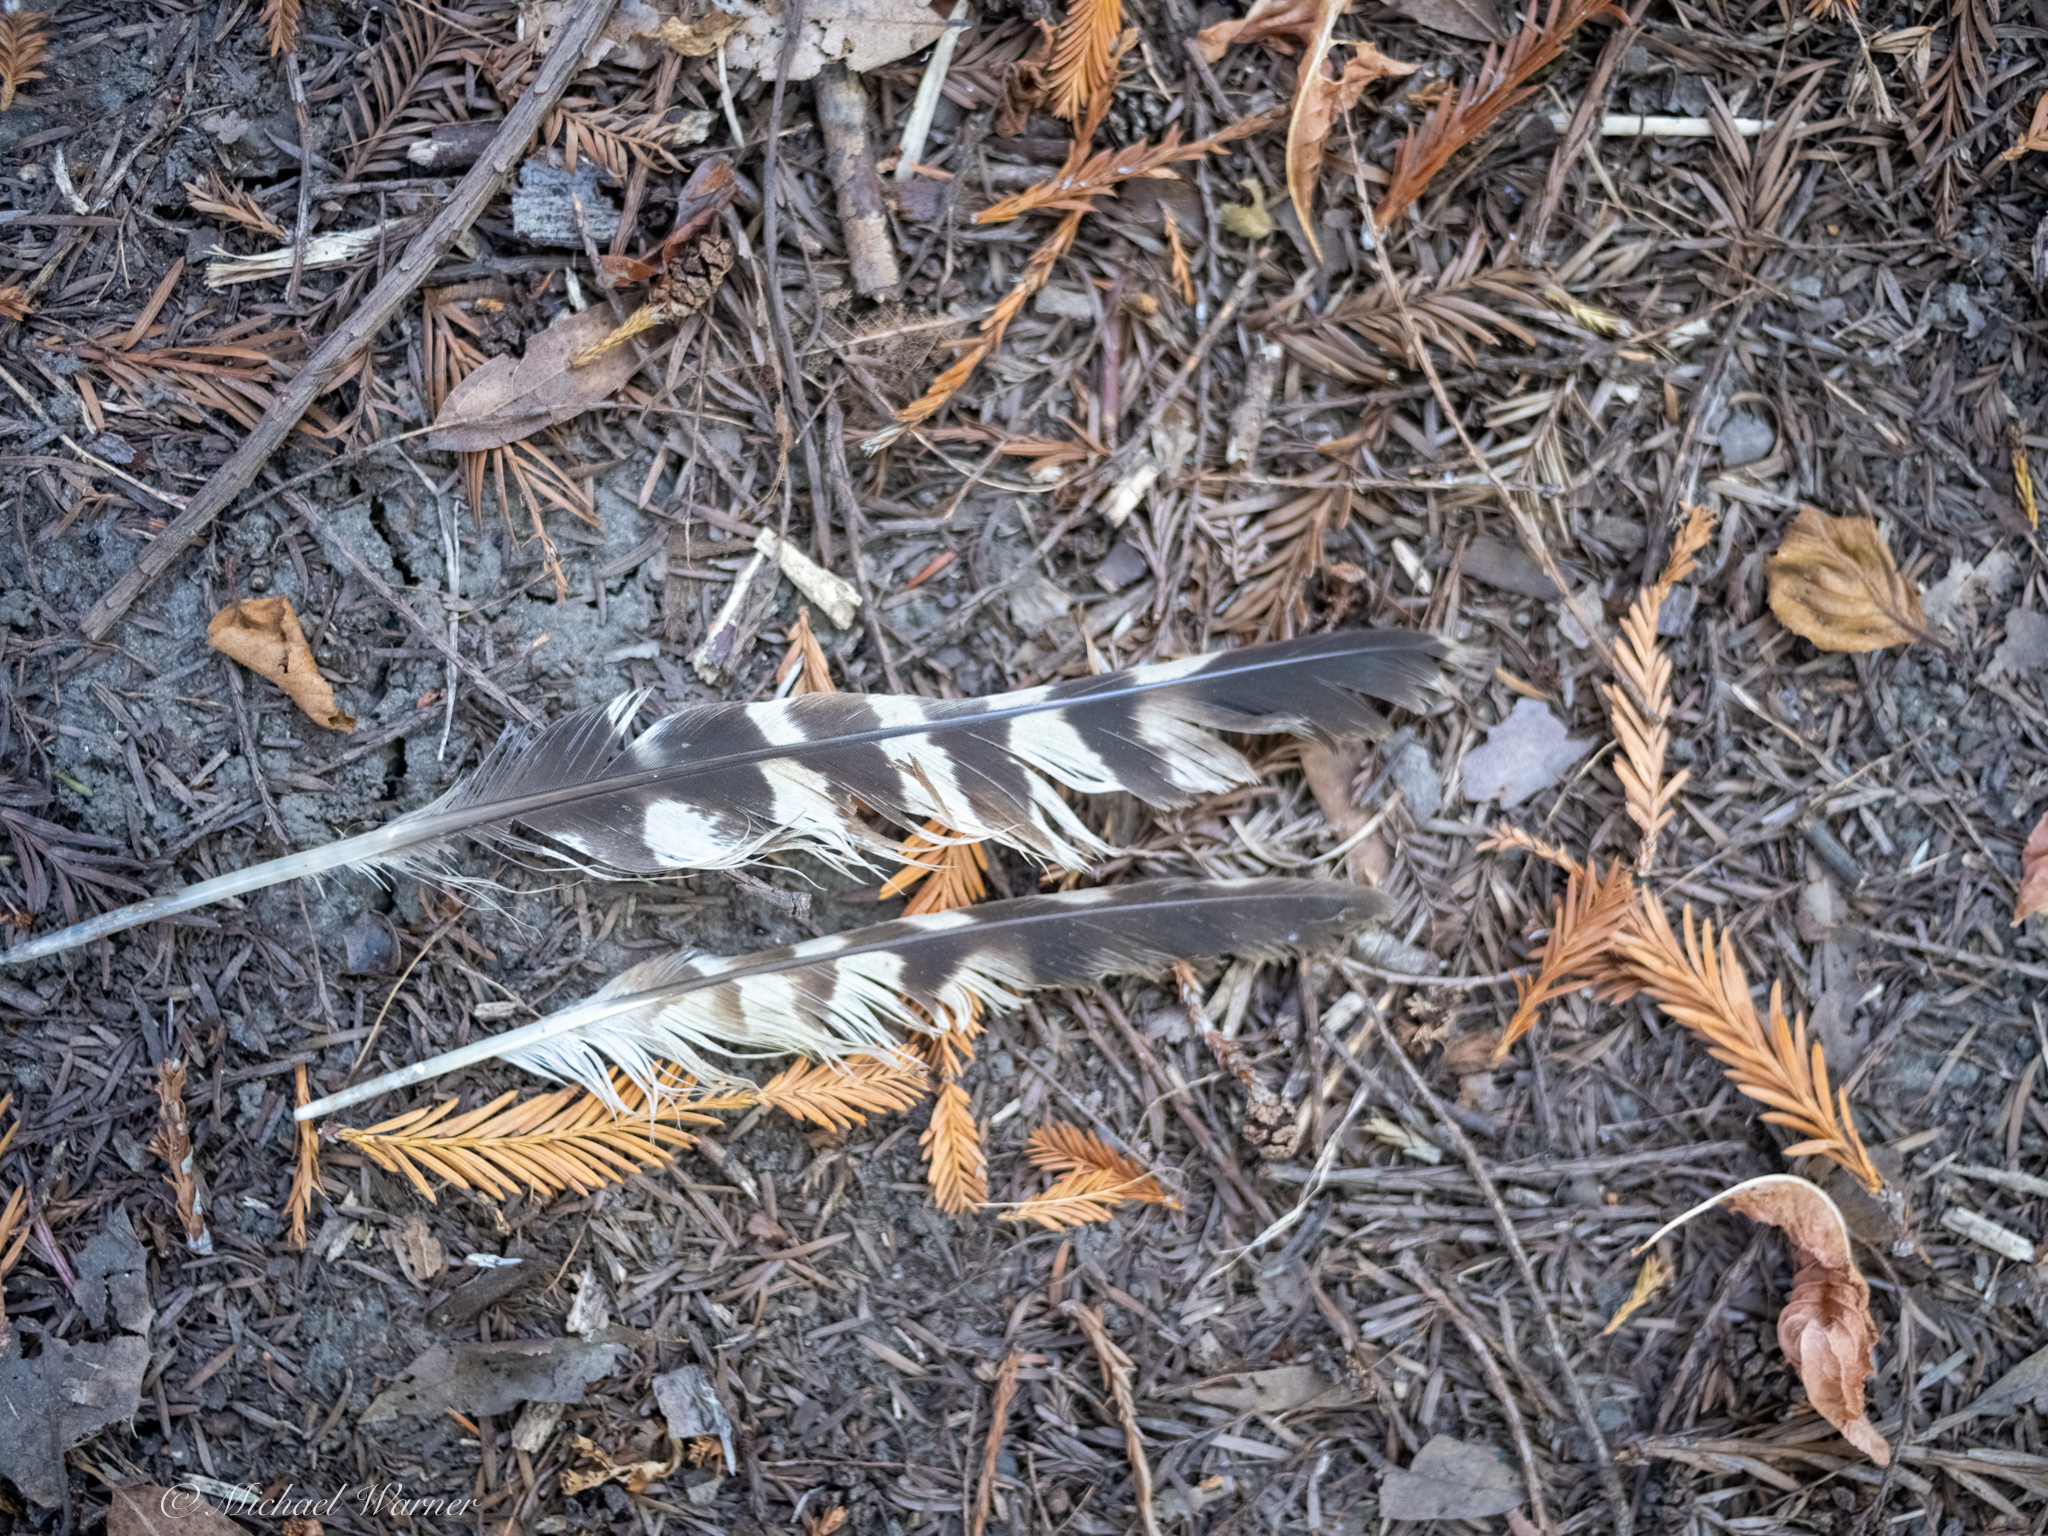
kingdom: Animalia
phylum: Chordata
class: Aves
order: Accipitriformes
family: Accipitridae
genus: Buteo
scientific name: Buteo lineatus
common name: Red-shouldered hawk
